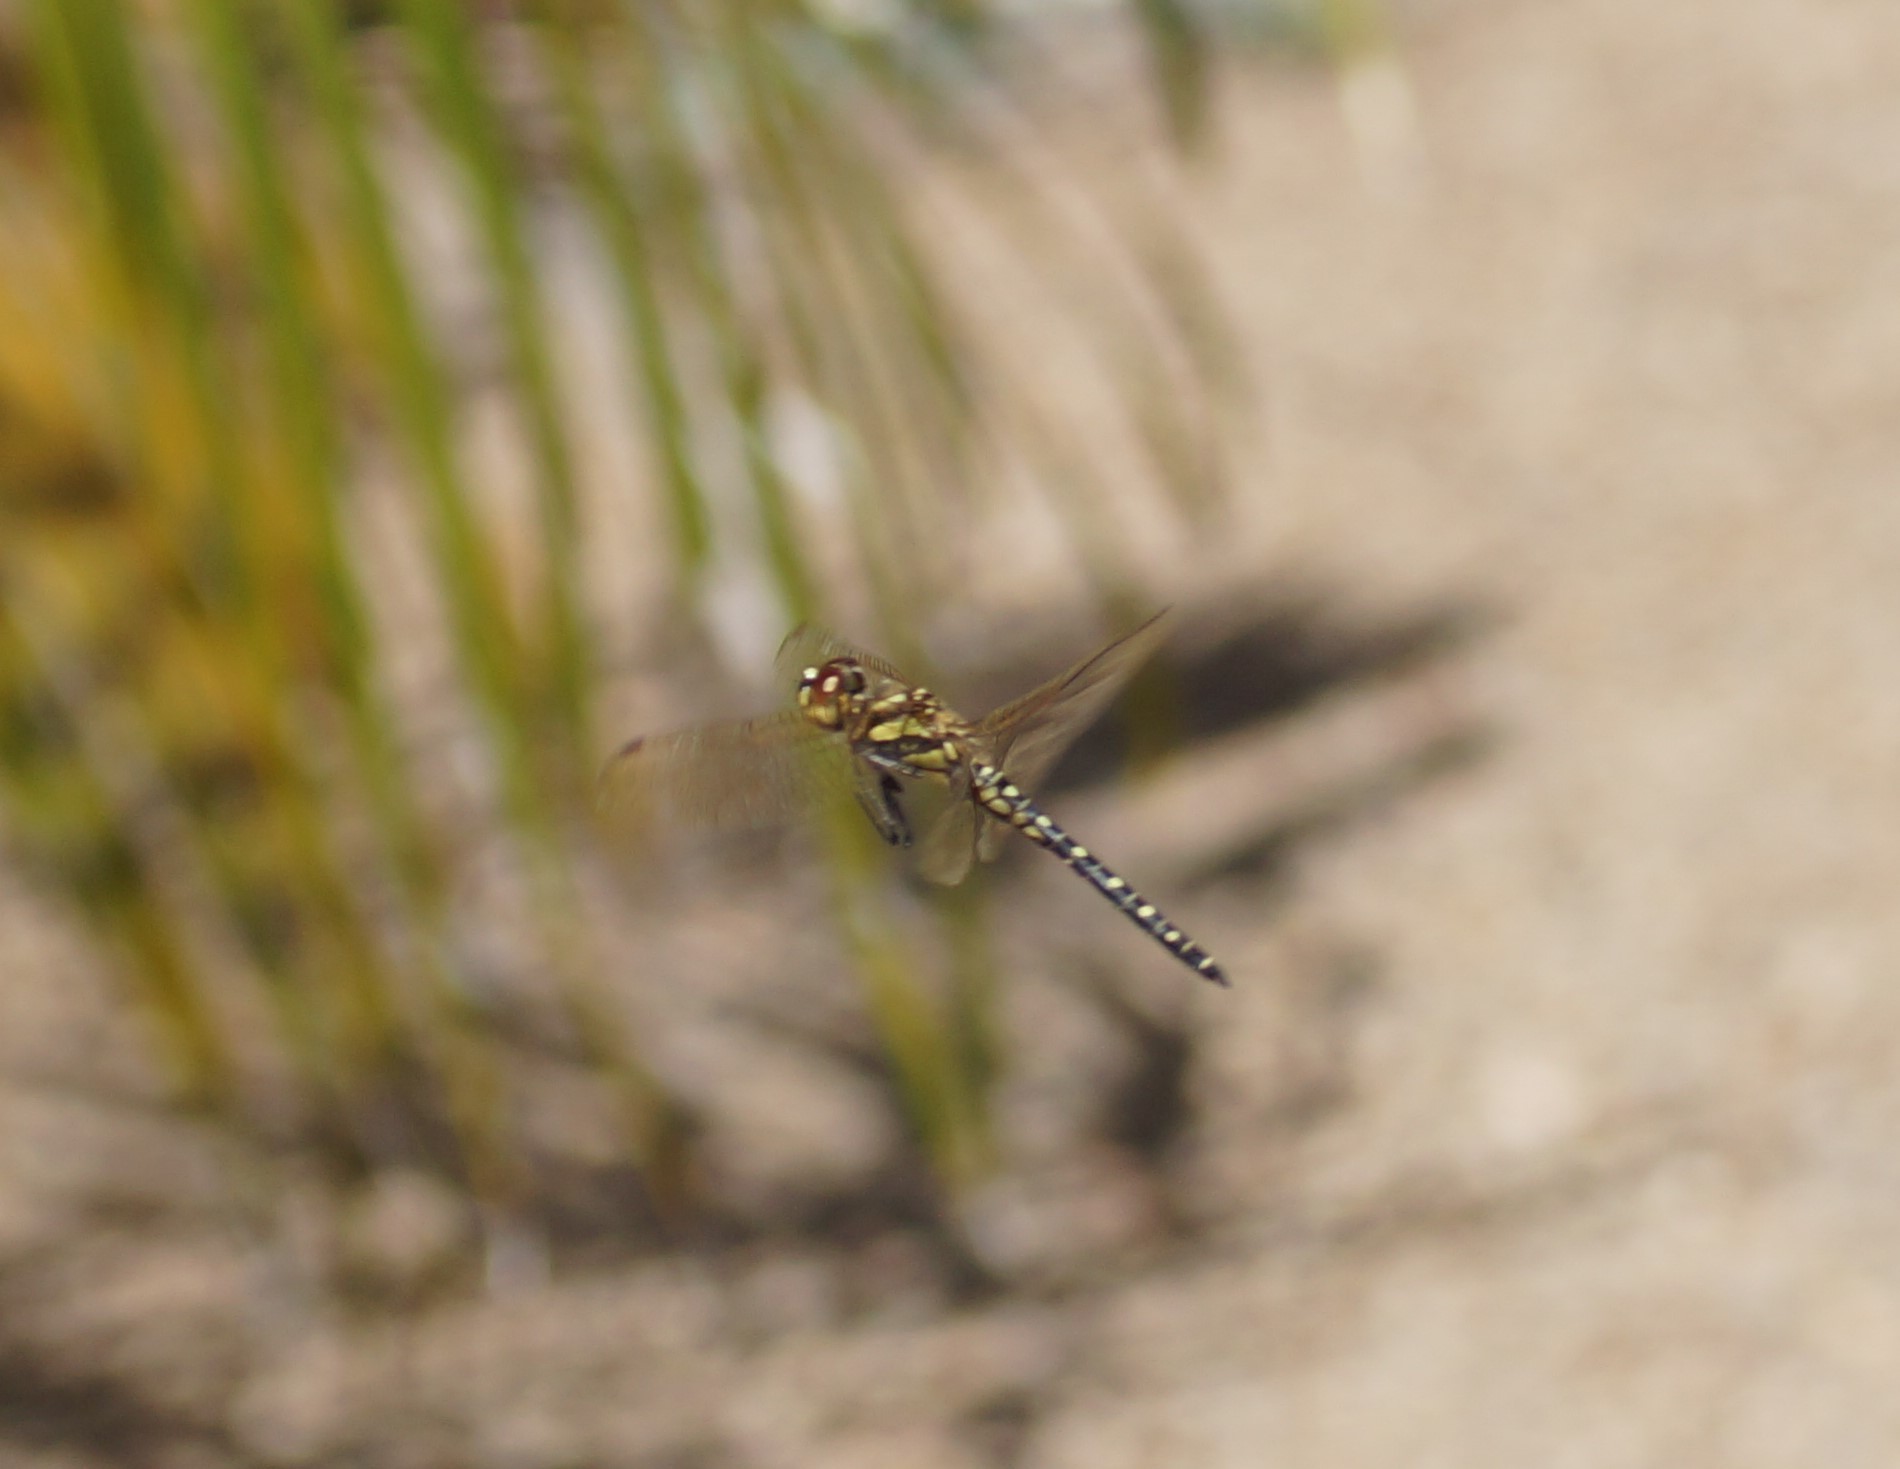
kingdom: Animalia
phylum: Arthropoda
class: Insecta
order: Odonata
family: Libellulidae
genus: Hydrobasileus
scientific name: Hydrobasileus brevistylus
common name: Water prince
